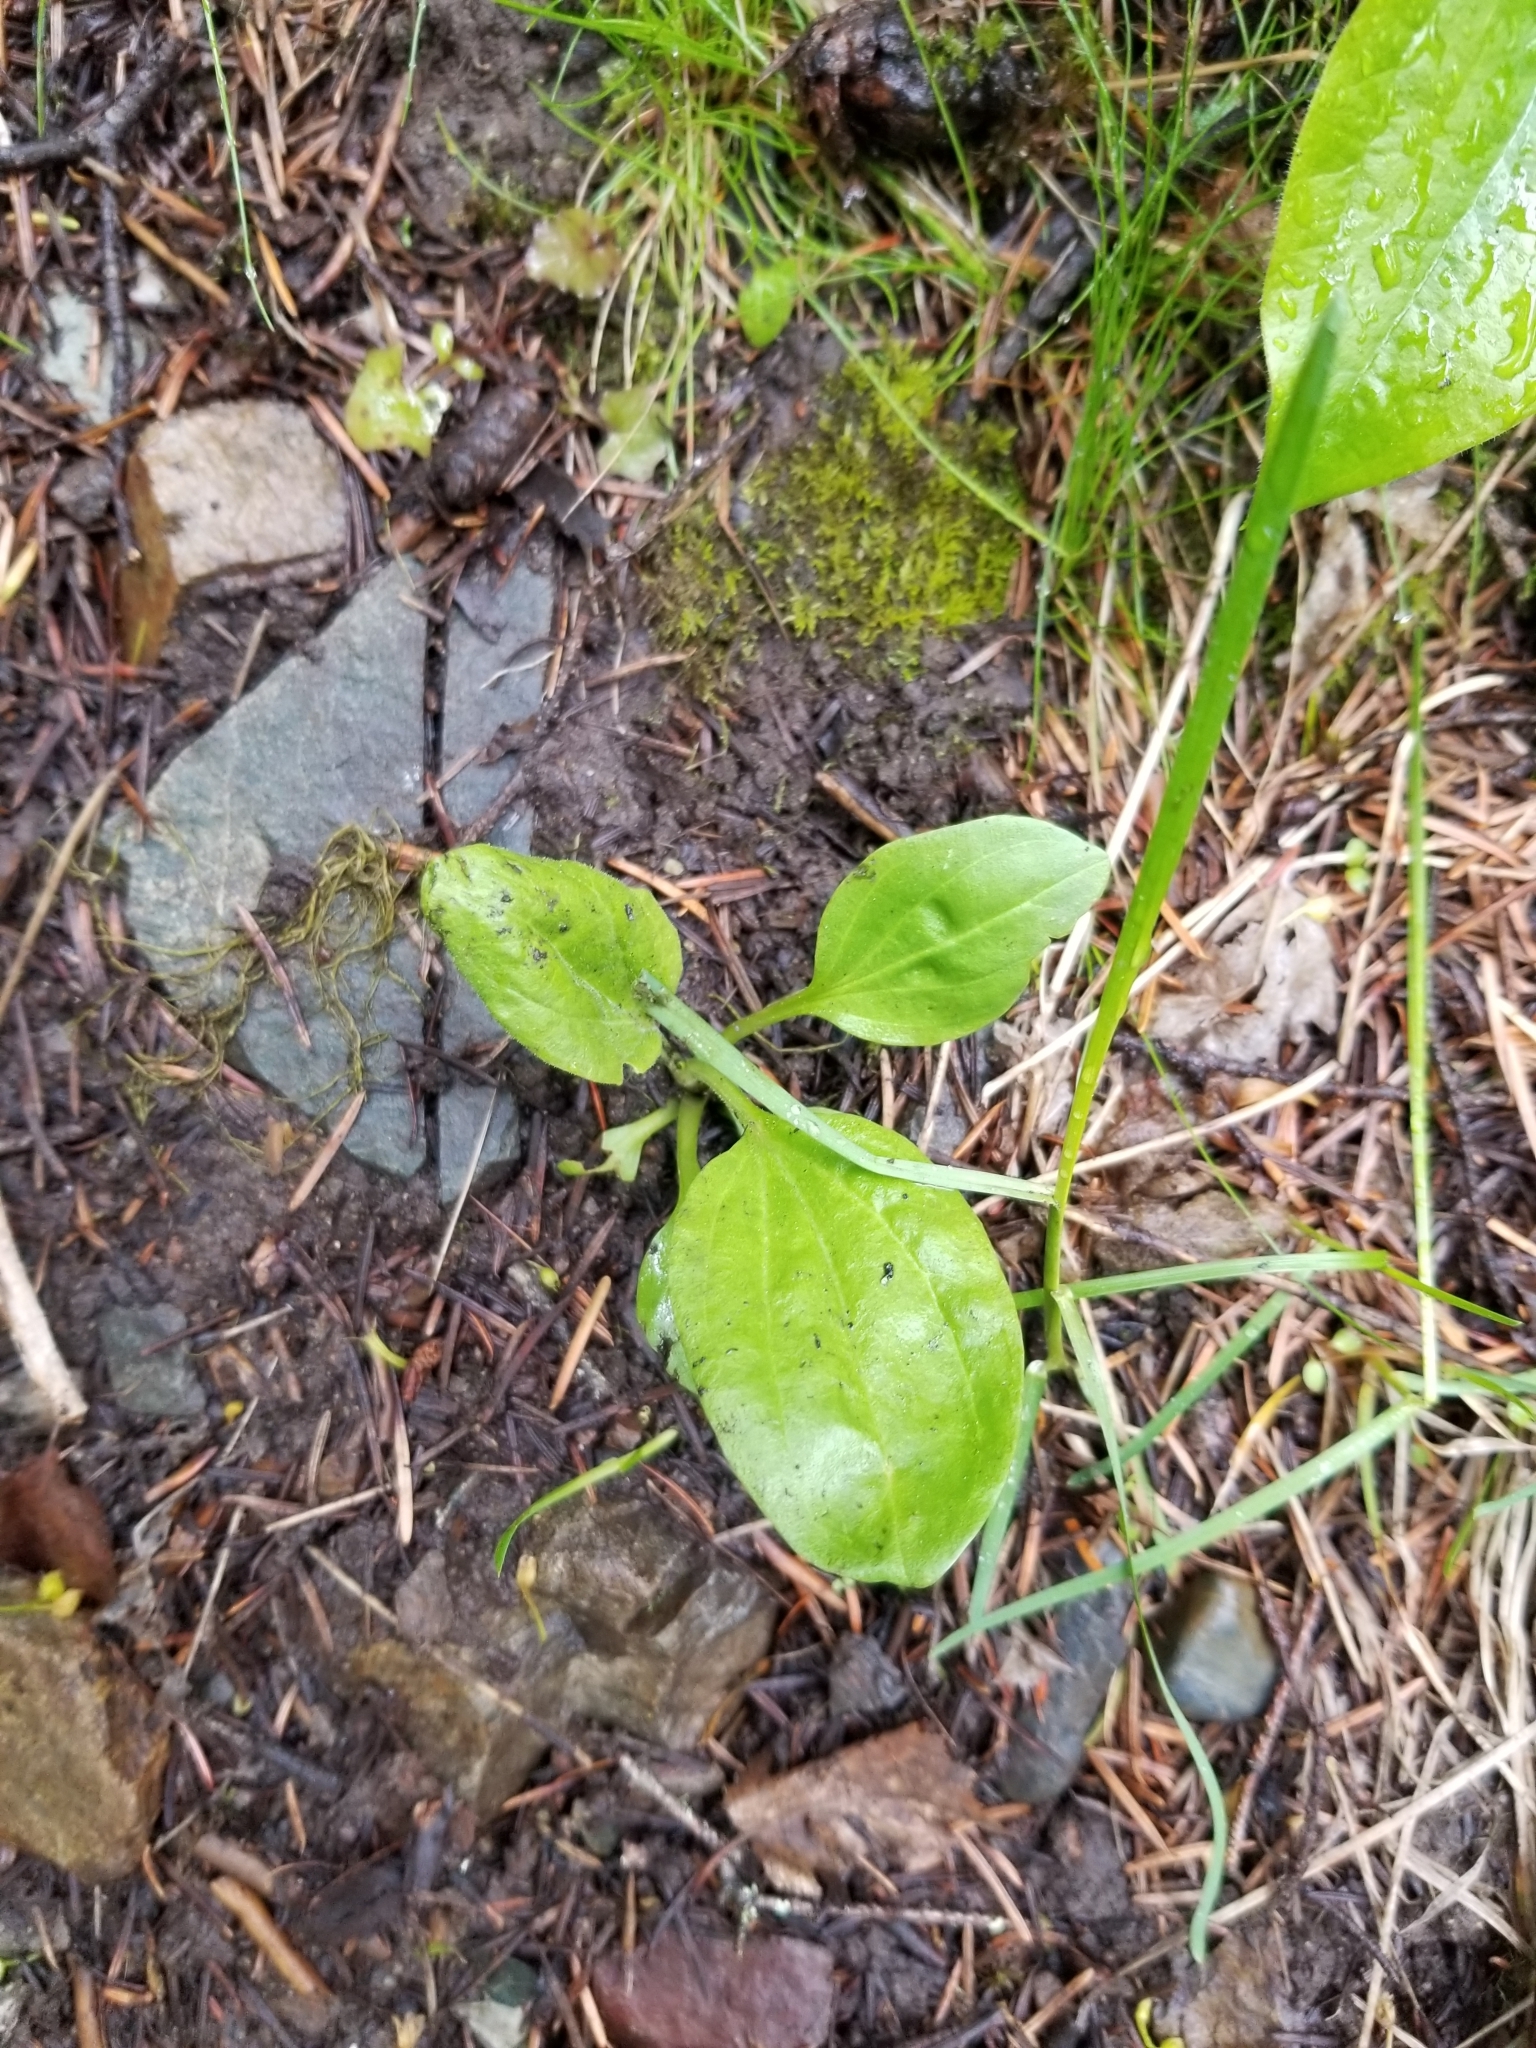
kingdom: Plantae
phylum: Tracheophyta
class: Magnoliopsida
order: Lamiales
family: Plantaginaceae
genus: Plantago
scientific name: Plantago major
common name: Common plantain
